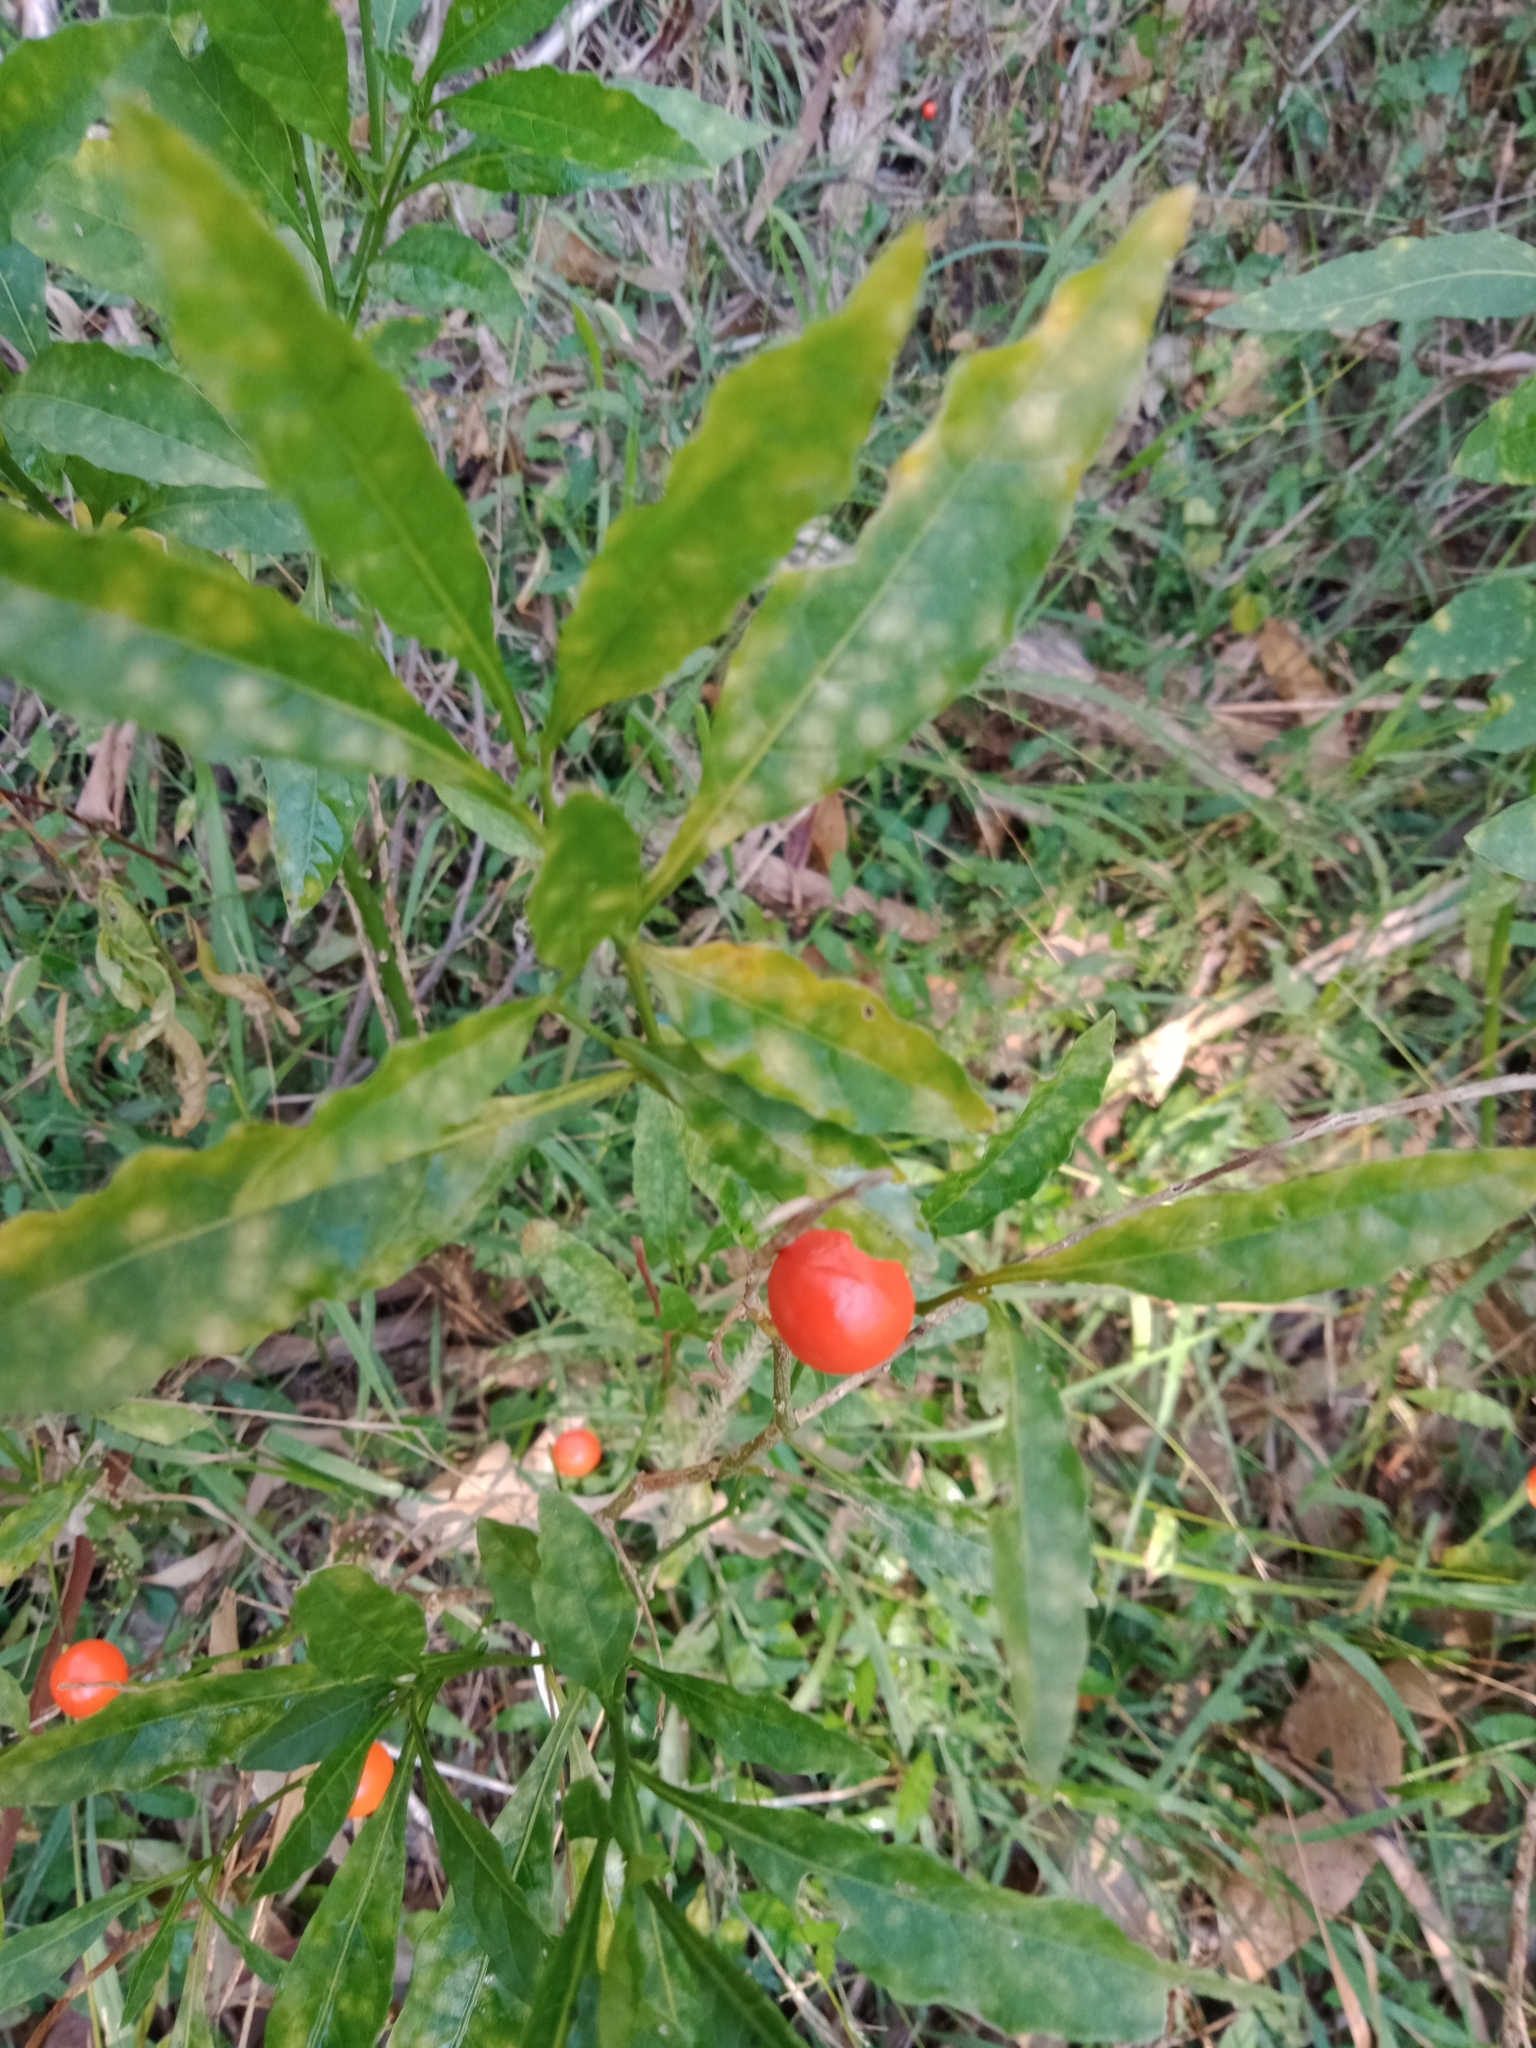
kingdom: Plantae
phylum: Tracheophyta
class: Magnoliopsida
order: Solanales
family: Solanaceae
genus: Solanum
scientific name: Solanum pseudocapsicum
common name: Jerusalem cherry
